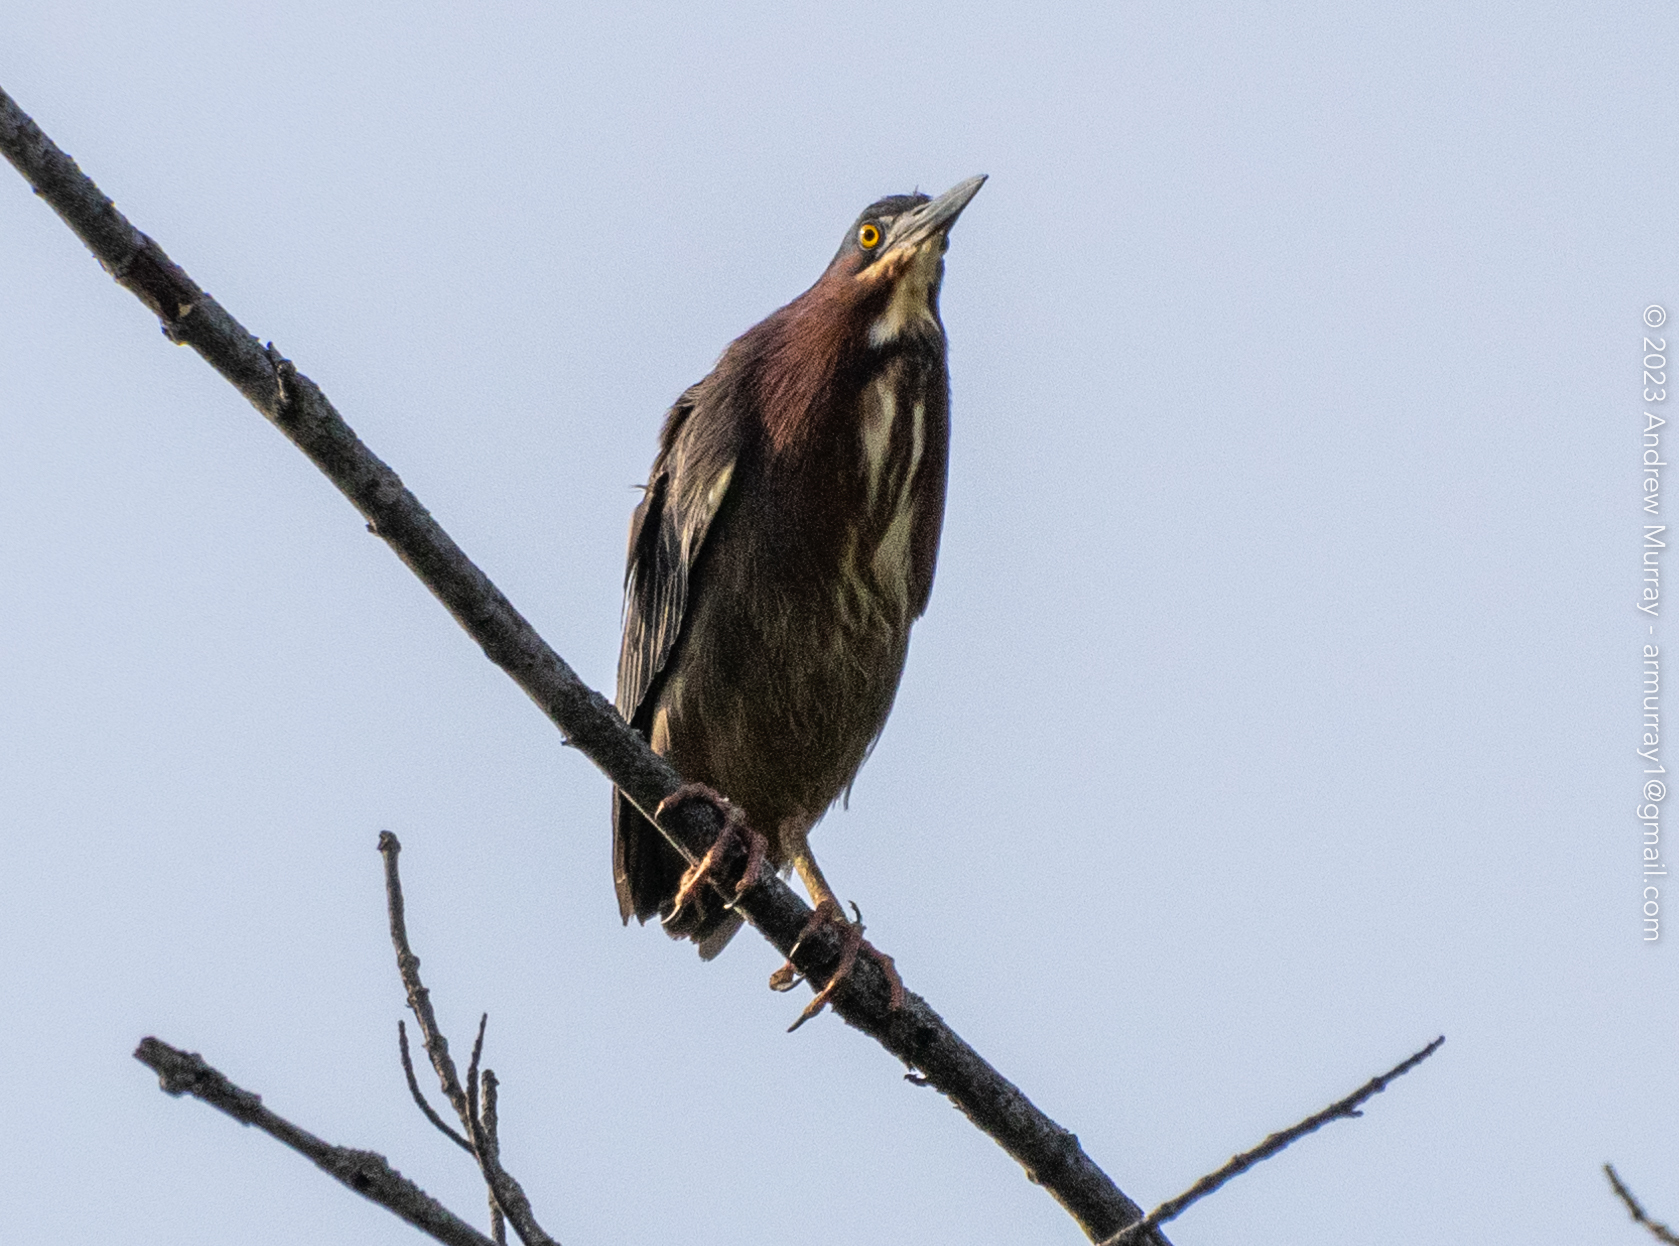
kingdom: Animalia
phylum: Chordata
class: Aves
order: Pelecaniformes
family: Ardeidae
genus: Butorides
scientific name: Butorides virescens
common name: Green heron
